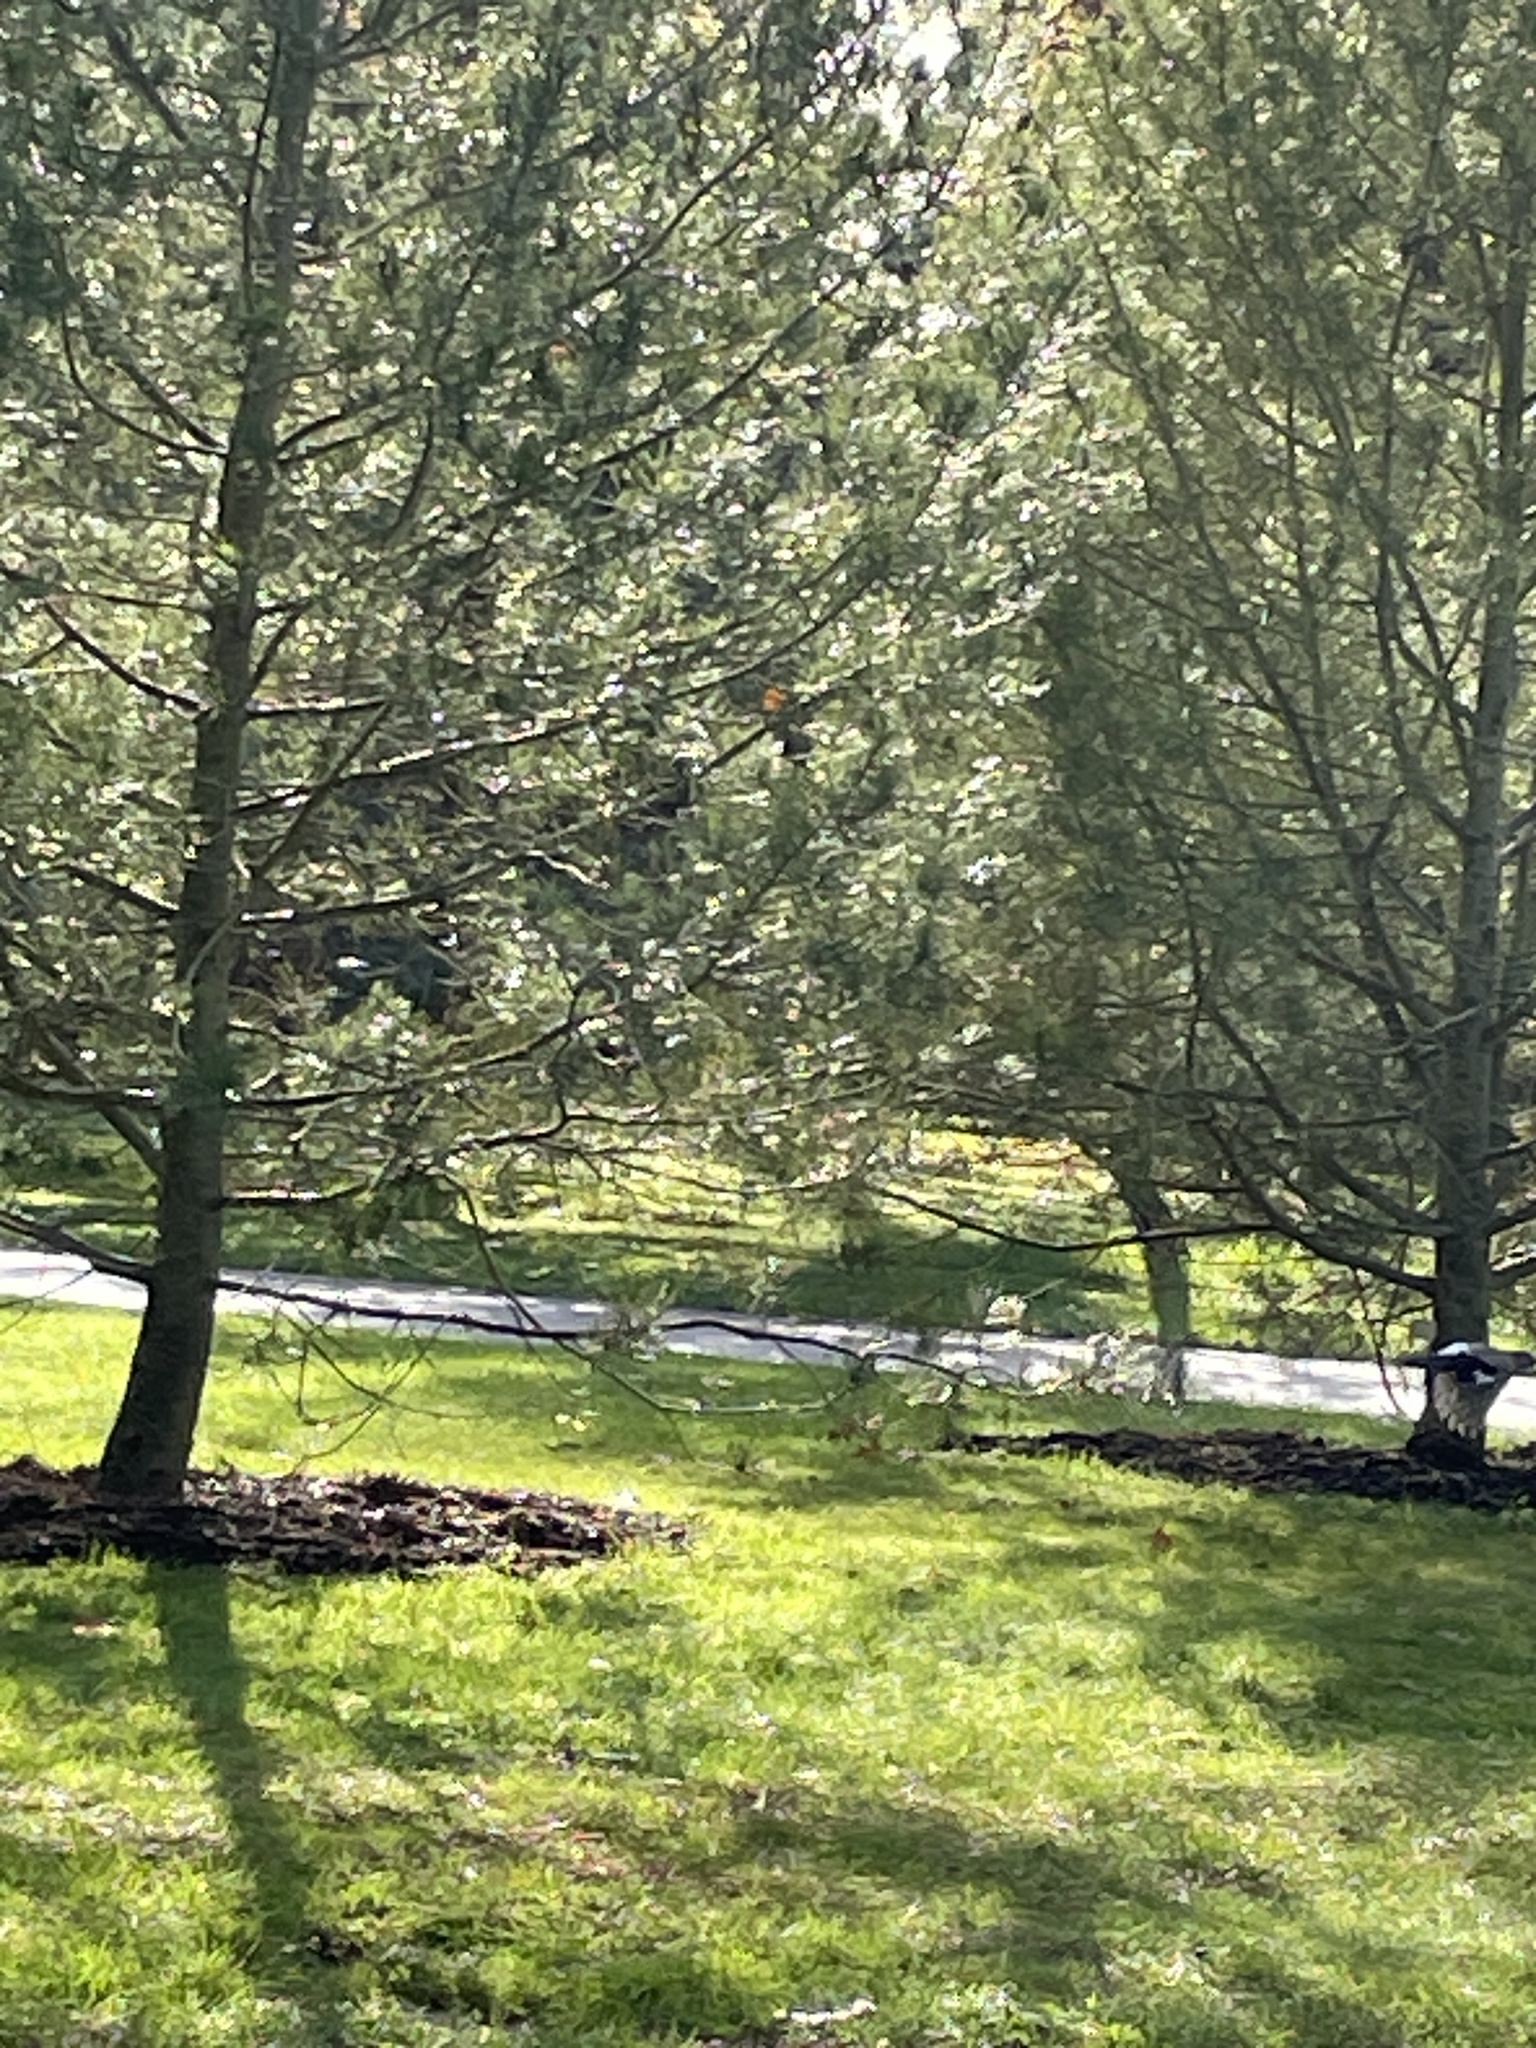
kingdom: Animalia
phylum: Chordata
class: Aves
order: Passeriformes
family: Corvidae
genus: Garrulus
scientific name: Garrulus glandarius
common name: Eurasian jay
